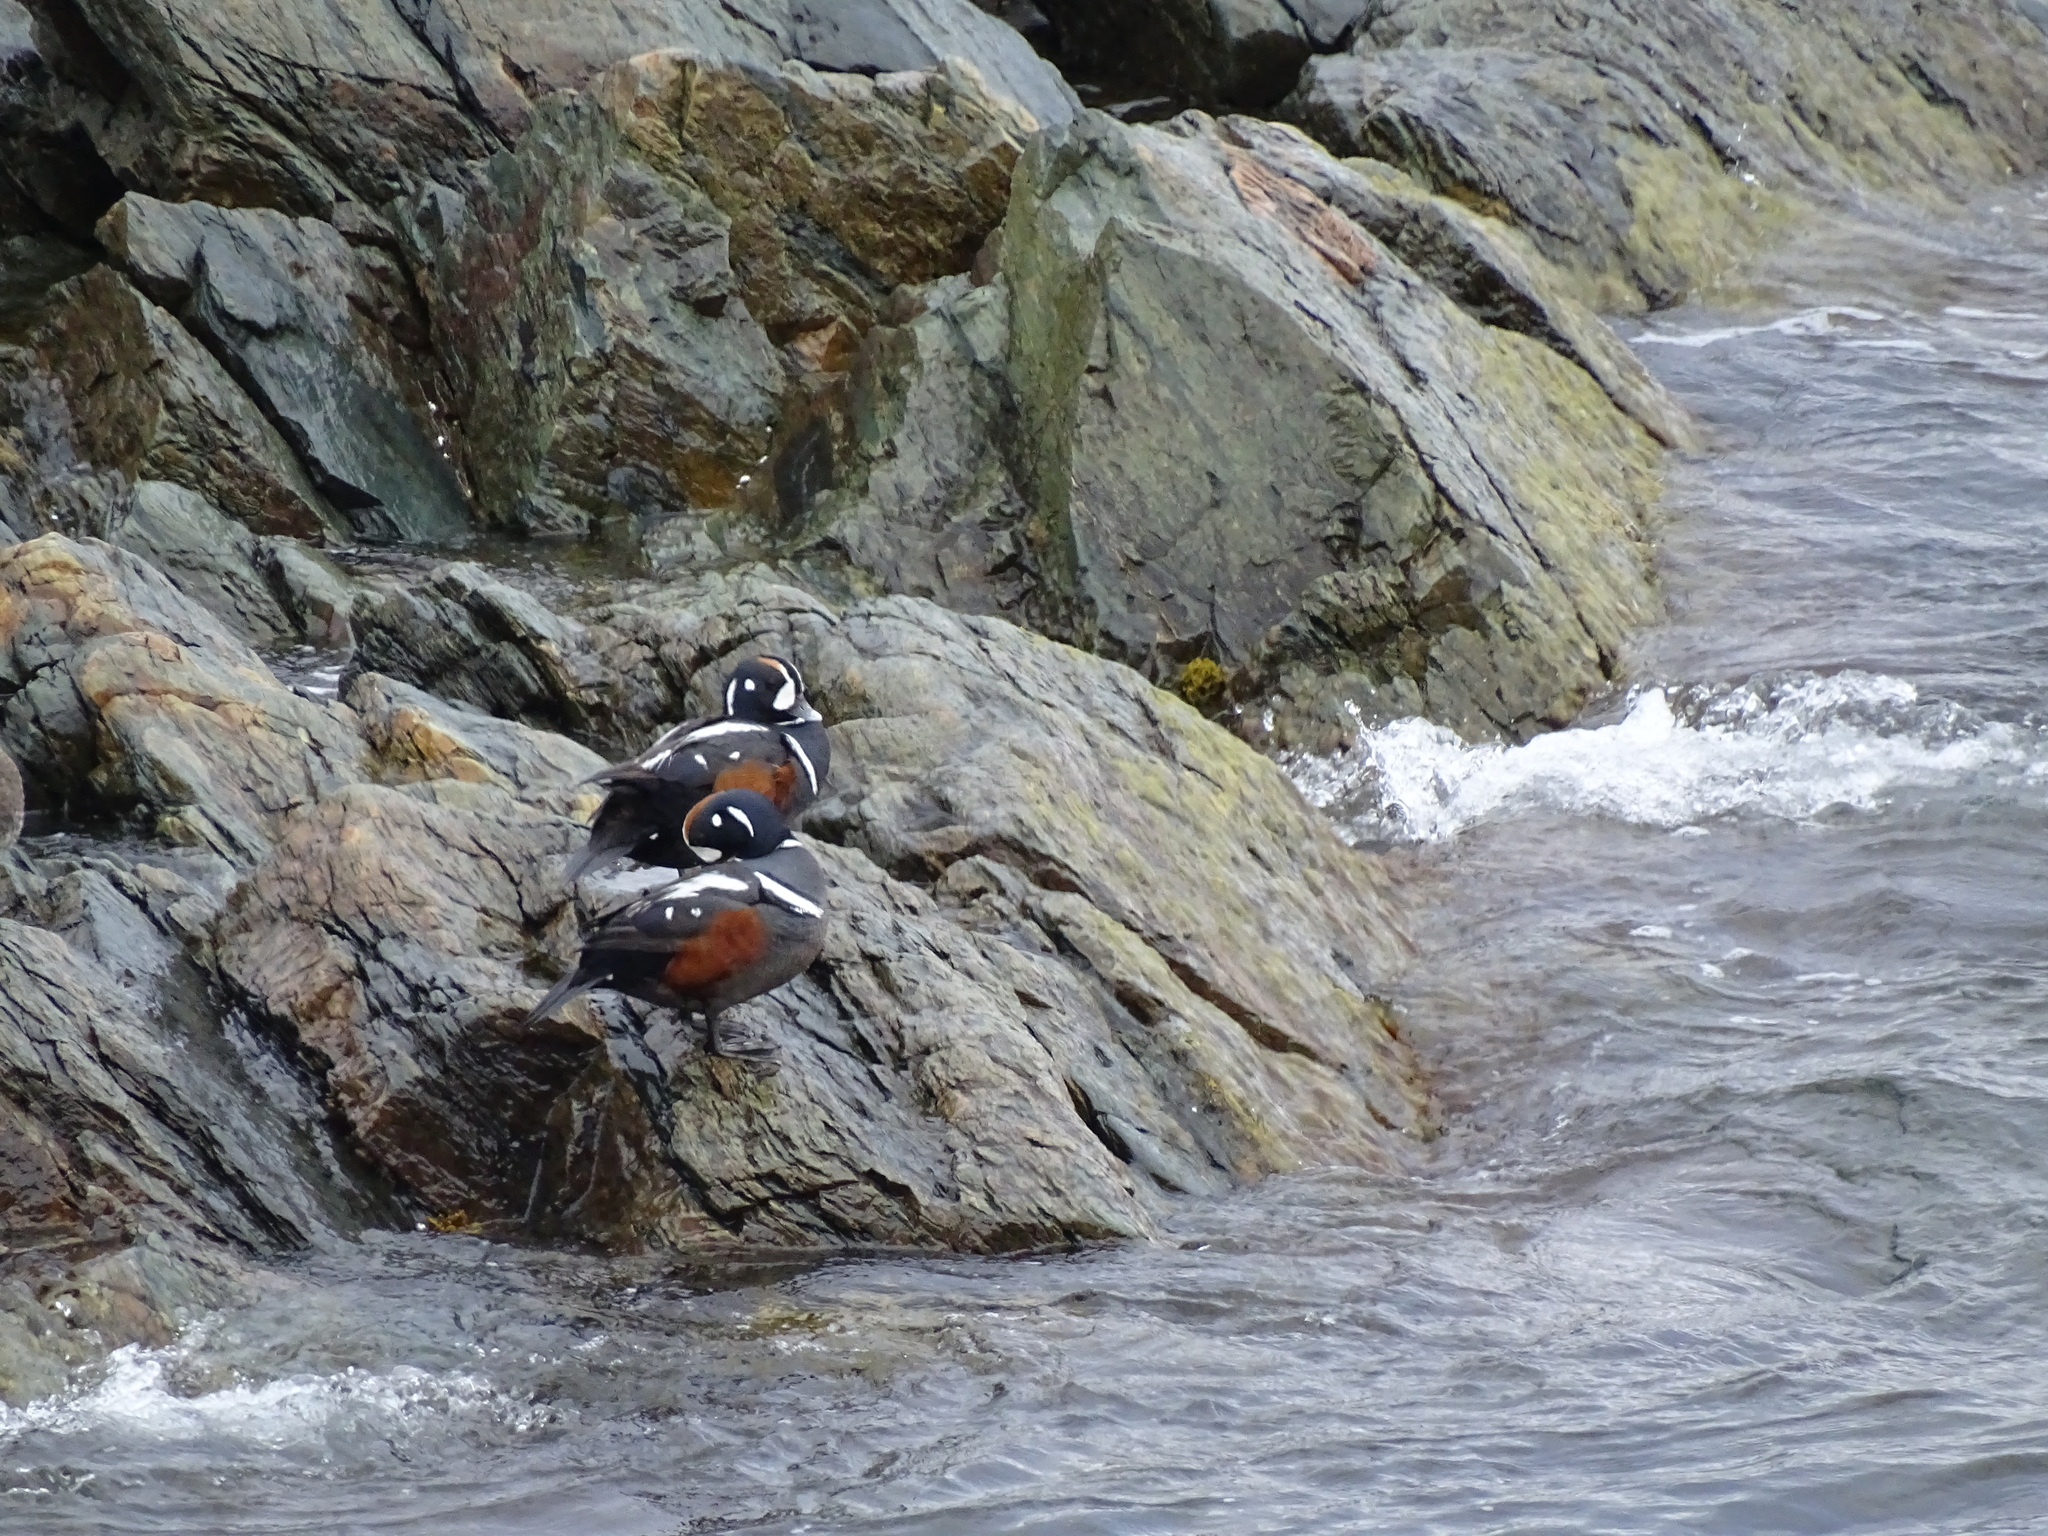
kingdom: Animalia
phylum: Chordata
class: Aves
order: Anseriformes
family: Anatidae
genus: Histrionicus
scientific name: Histrionicus histrionicus
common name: Harlequin duck
